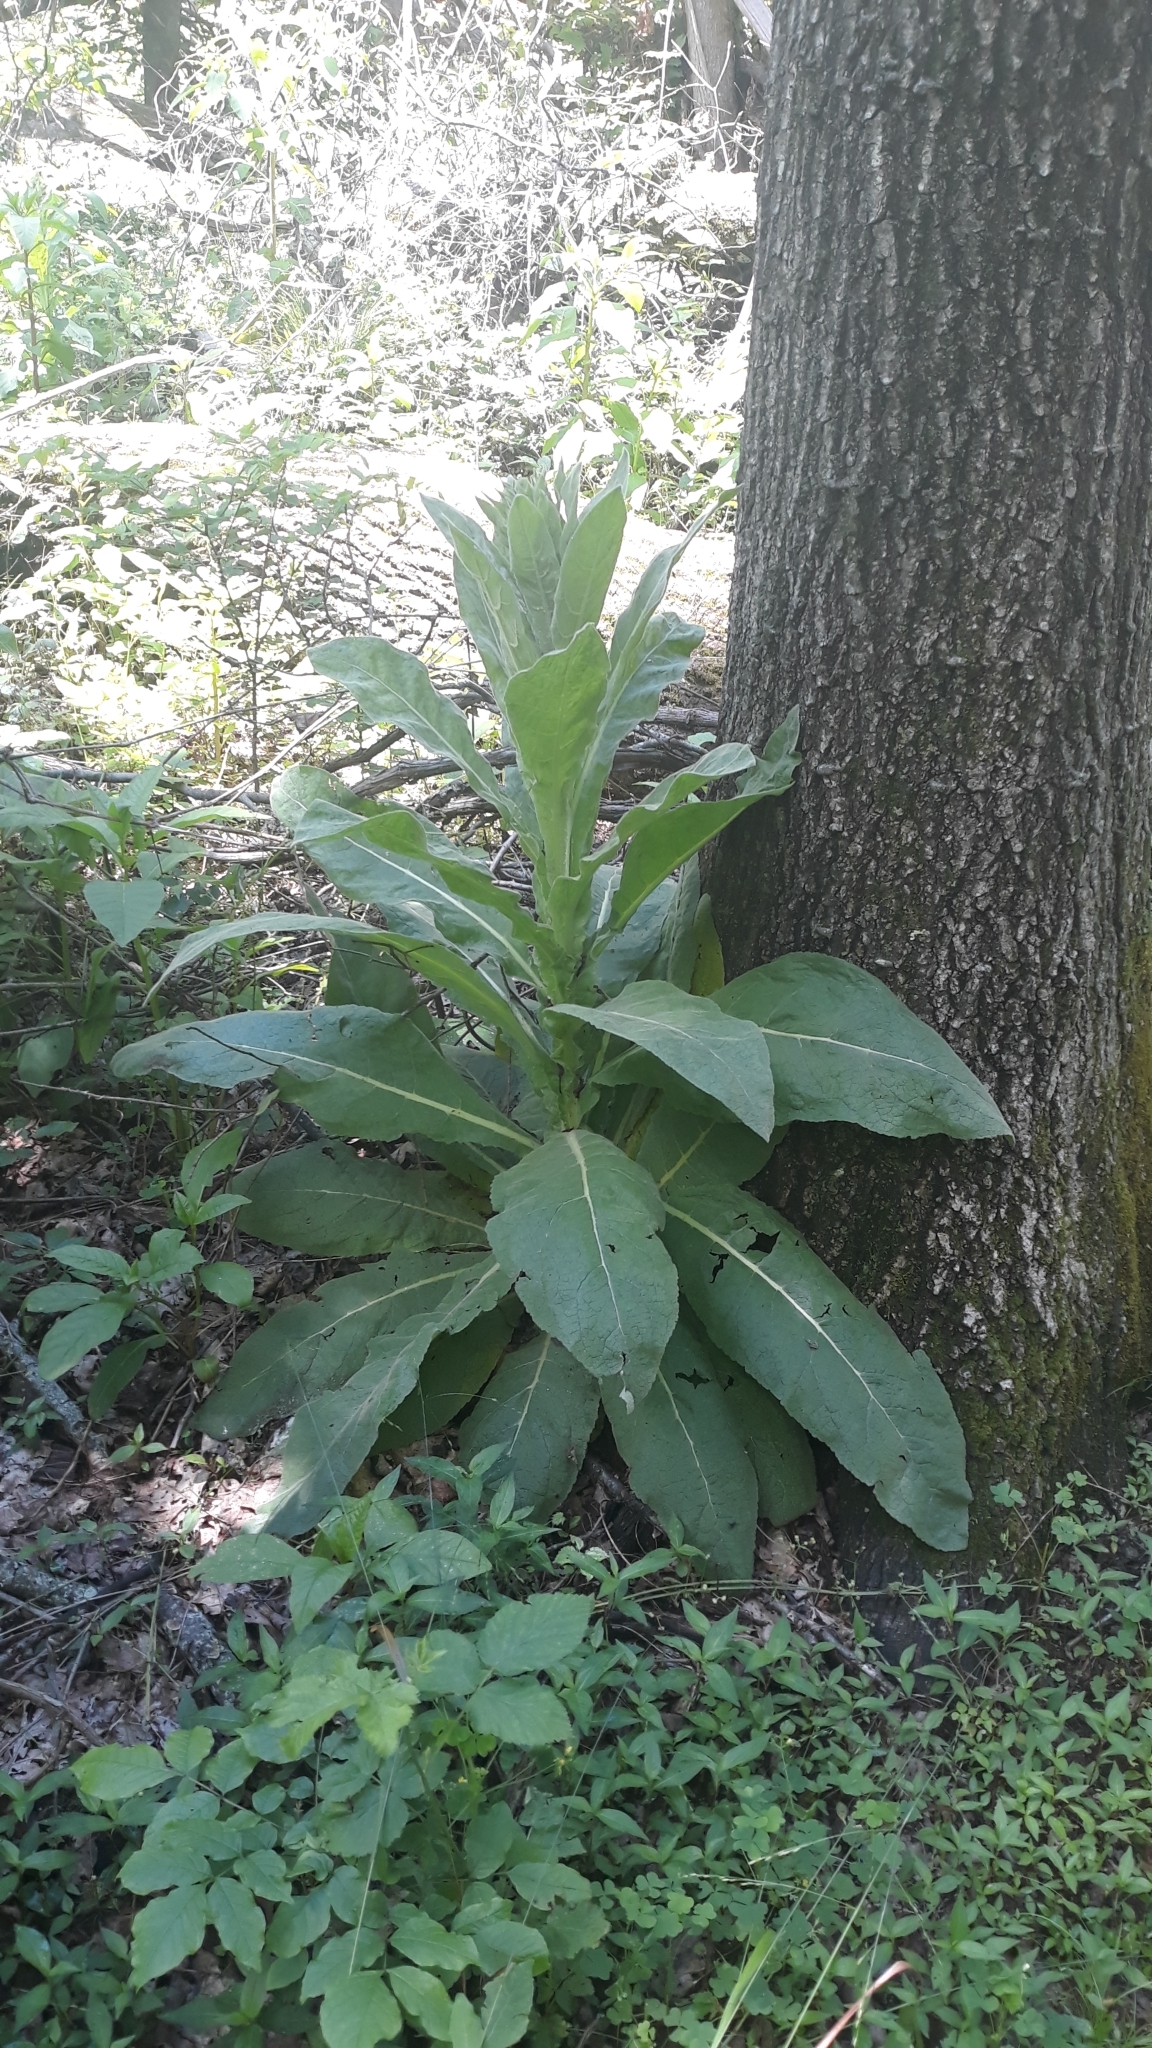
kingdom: Plantae
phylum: Tracheophyta
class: Magnoliopsida
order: Lamiales
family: Scrophulariaceae
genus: Verbascum
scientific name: Verbascum thapsus
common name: Common mullein
